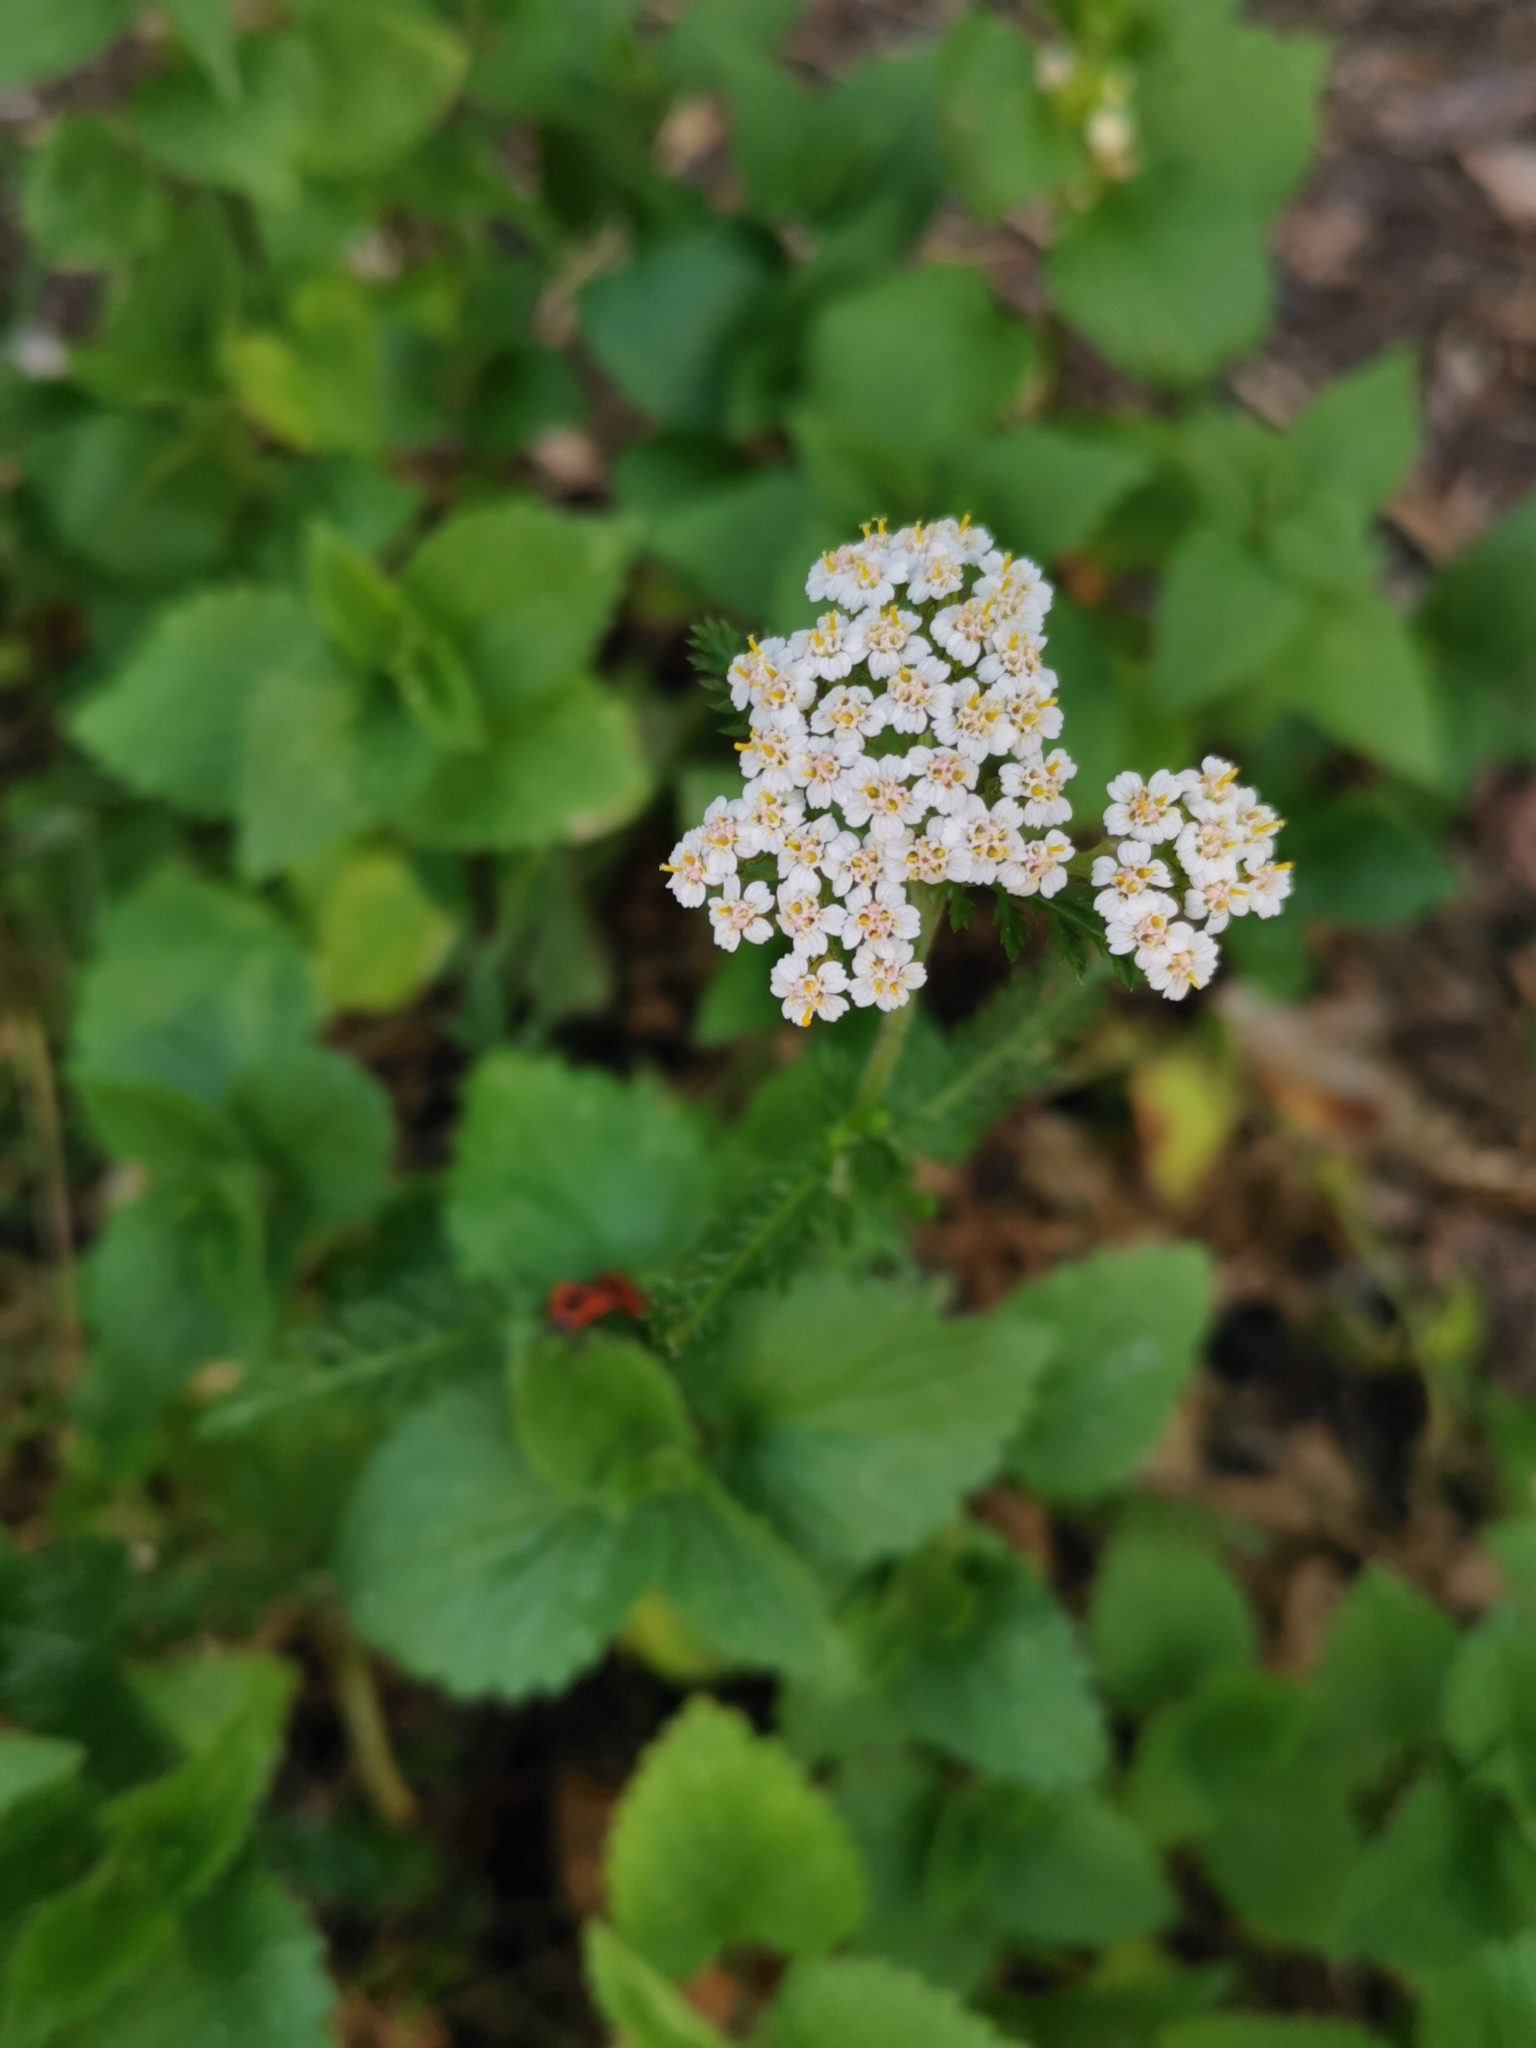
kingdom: Plantae
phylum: Tracheophyta
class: Magnoliopsida
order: Asterales
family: Asteraceae
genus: Achillea
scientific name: Achillea millefolium
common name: Yarrow
